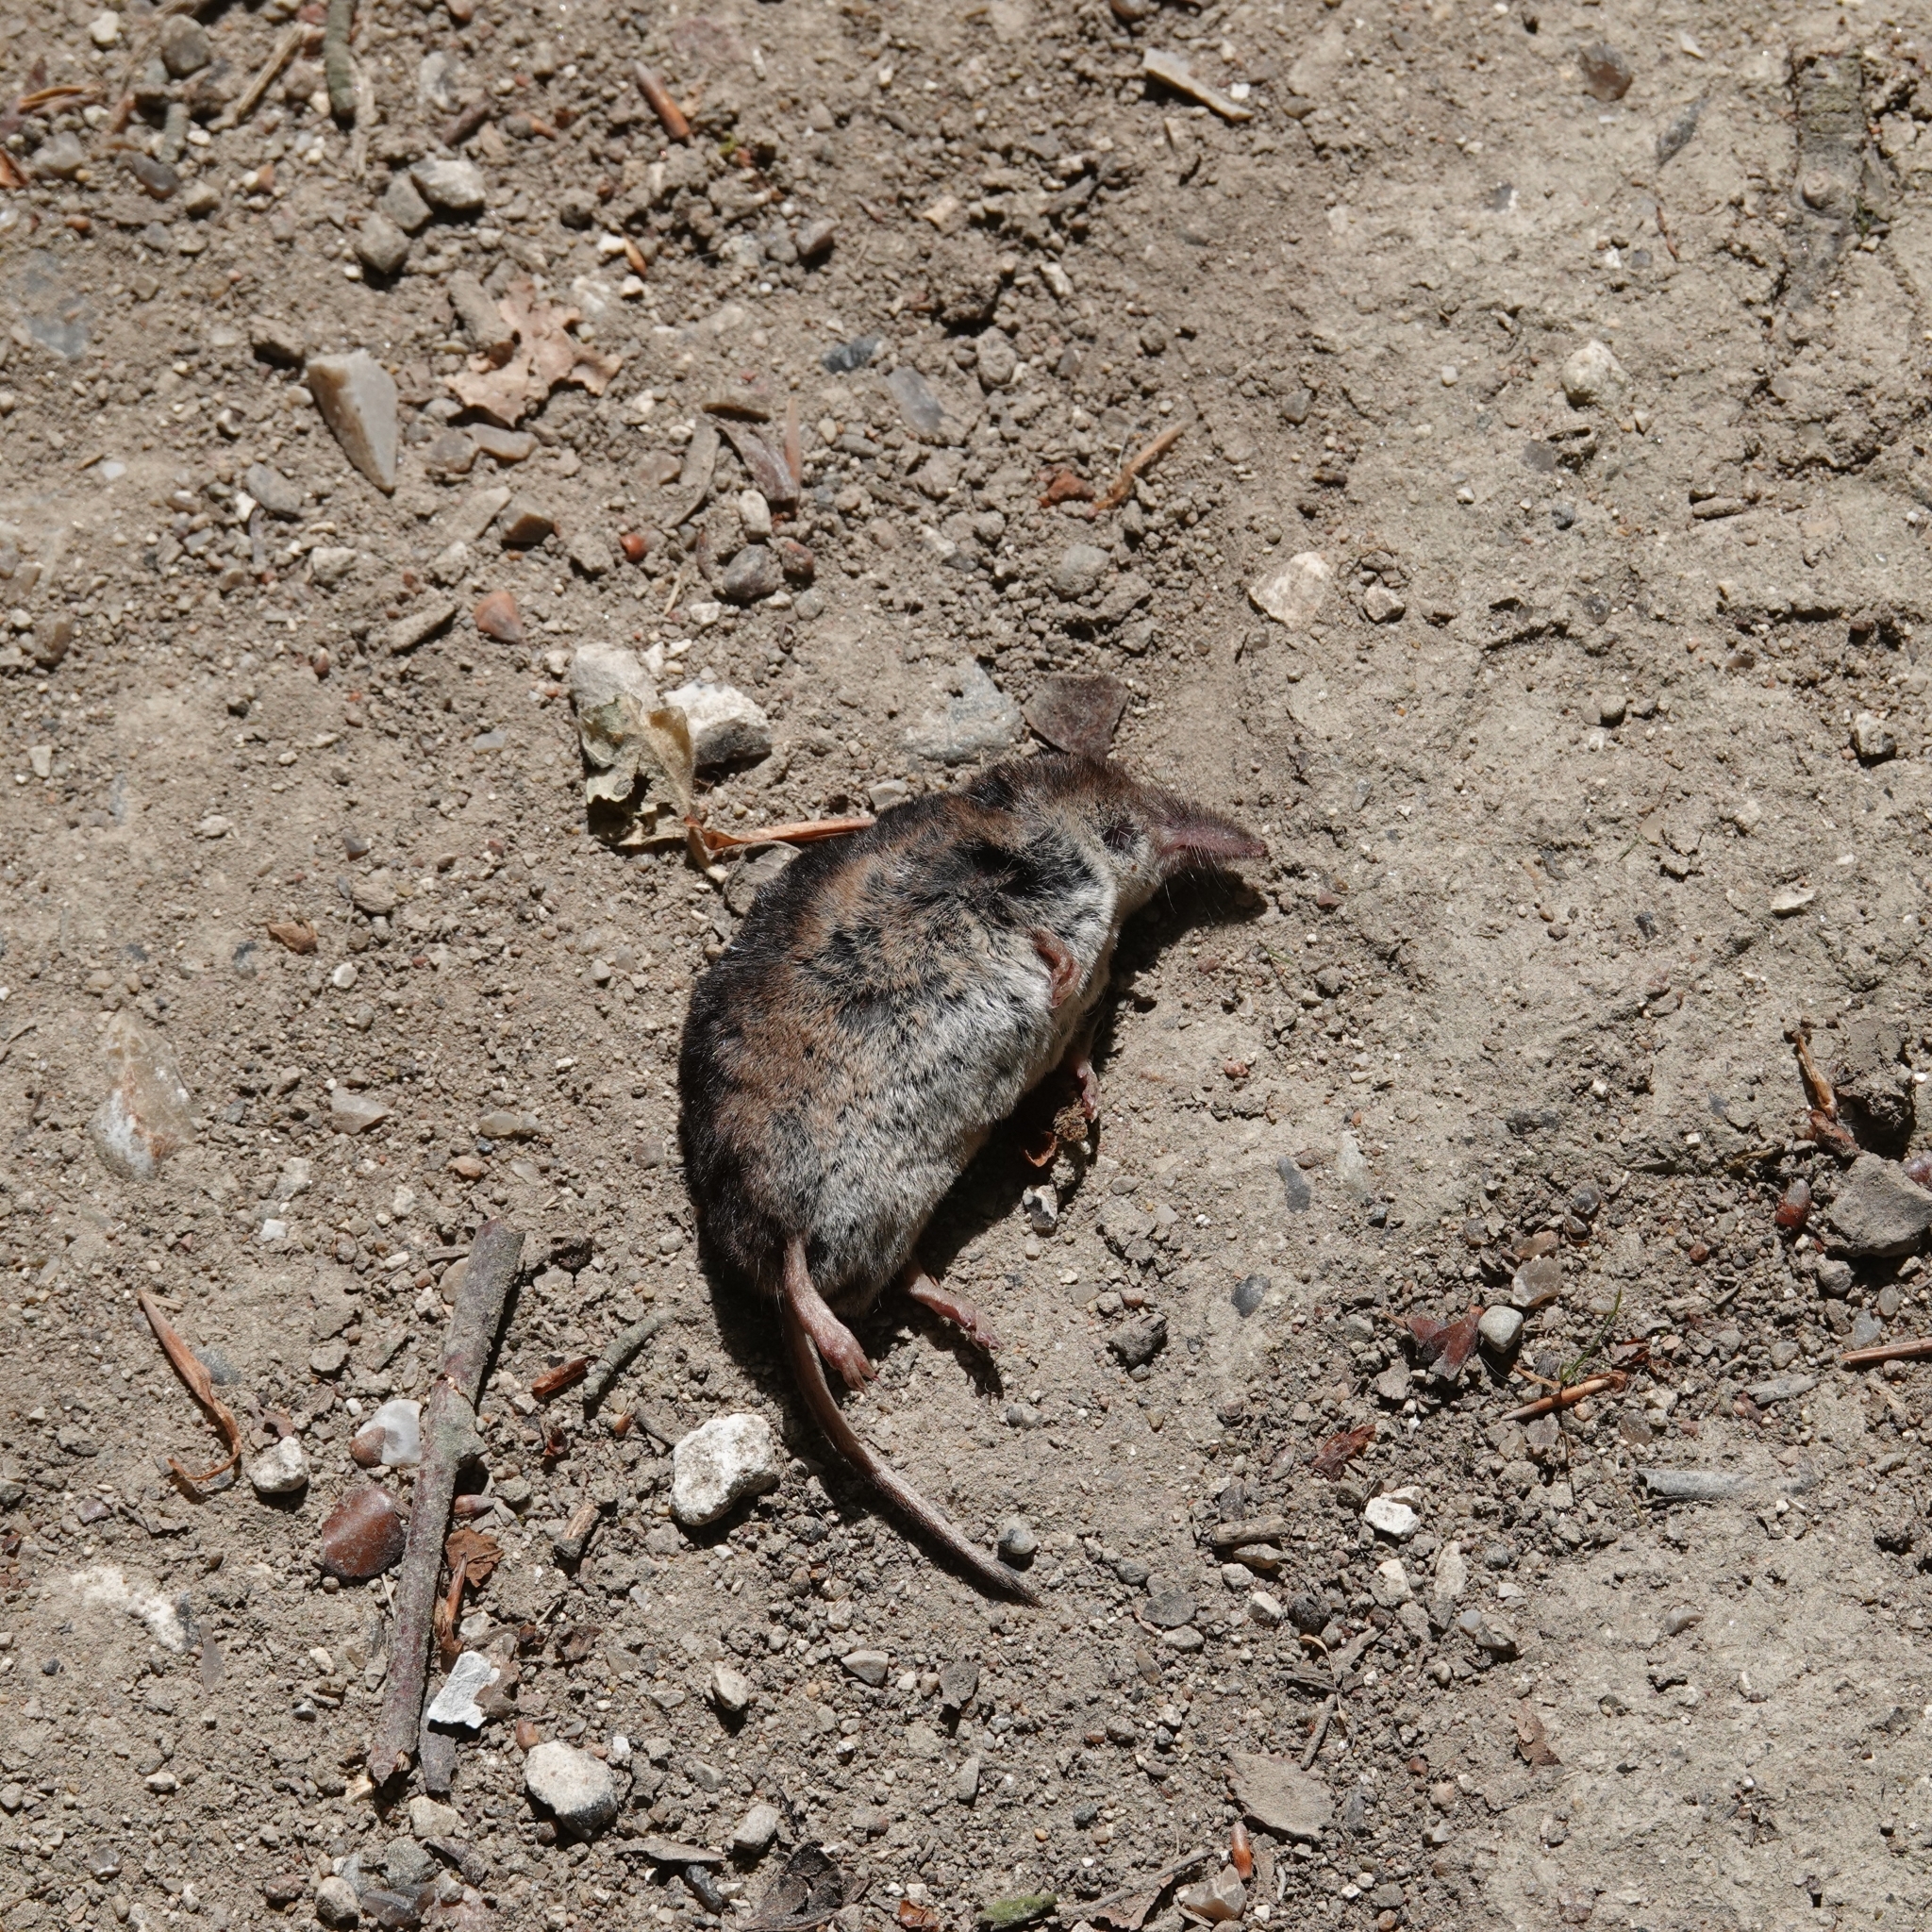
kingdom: Animalia
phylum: Chordata
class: Mammalia
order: Soricomorpha
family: Soricidae
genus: Sorex
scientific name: Sorex araneus
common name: Common shrew
